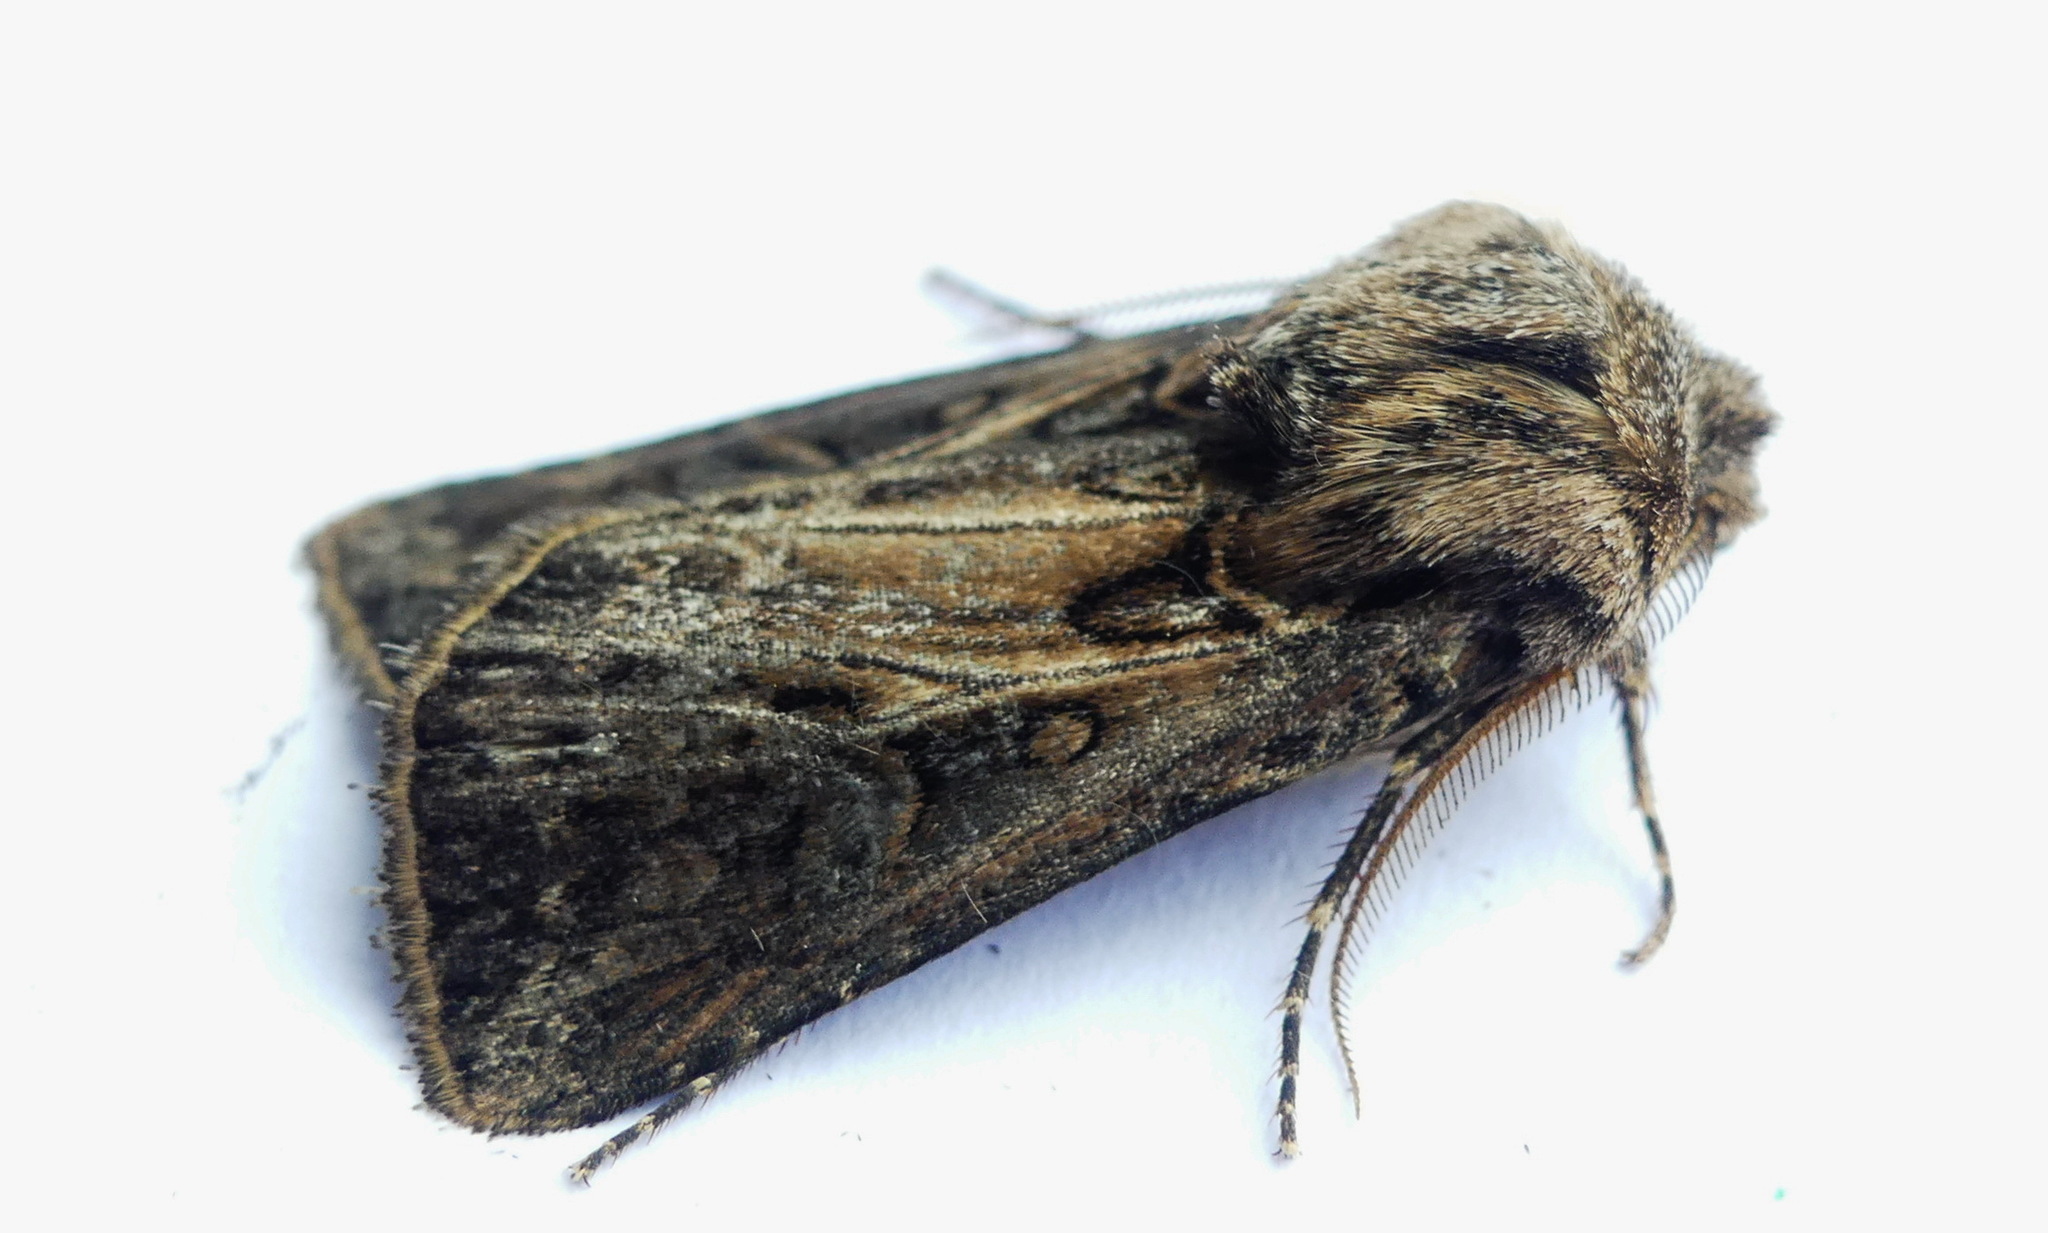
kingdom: Animalia
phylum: Arthropoda
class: Insecta
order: Lepidoptera
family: Noctuidae
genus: Agrotis
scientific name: Agrotis gladiaria
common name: Claybacked cutworm
